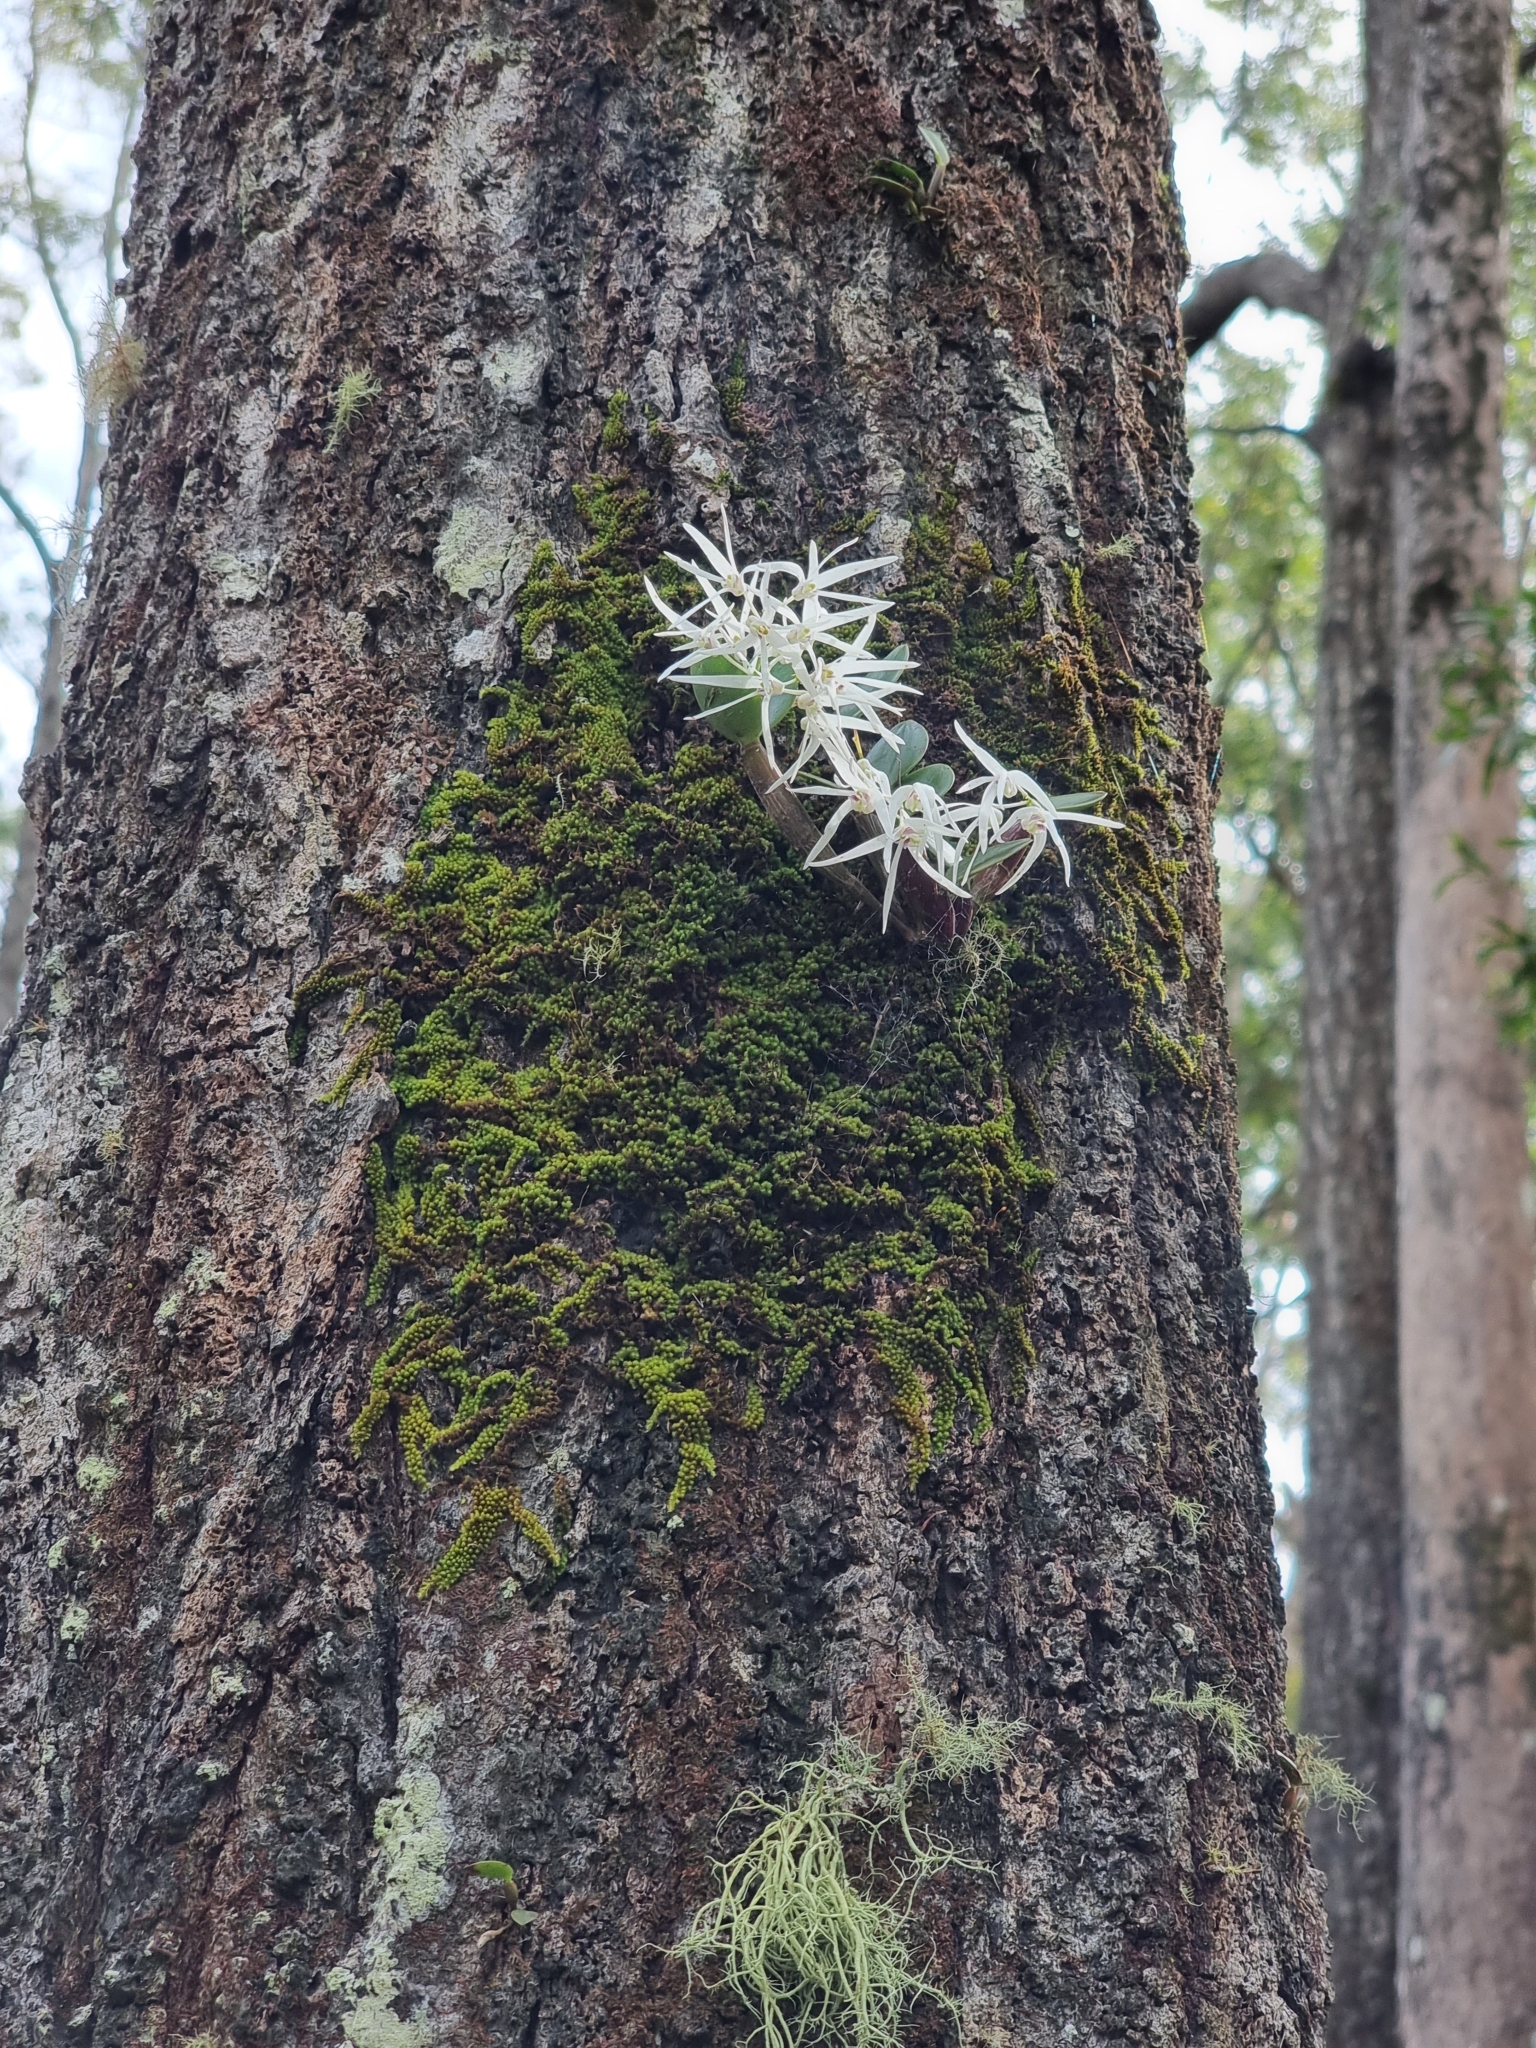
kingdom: Plantae
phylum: Tracheophyta
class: Liliopsida
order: Asparagales
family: Orchidaceae
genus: Dendrobium
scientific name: Dendrobium aemulum
